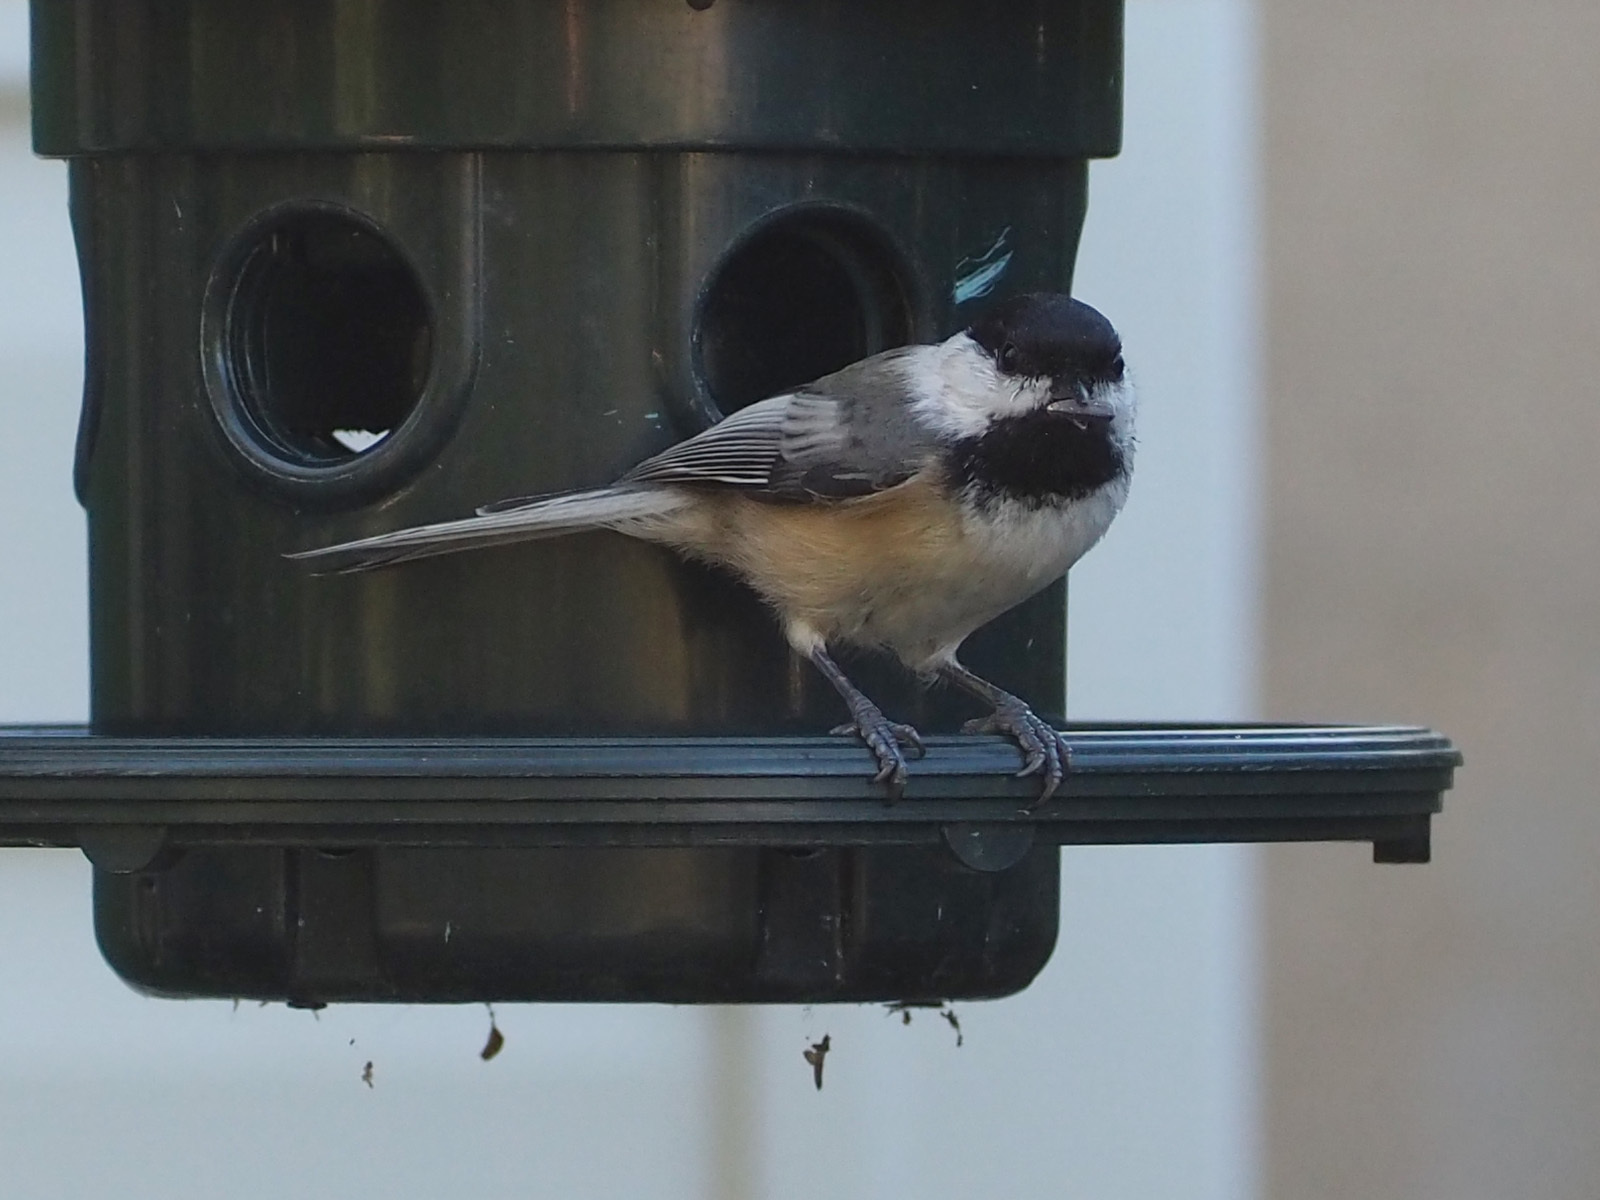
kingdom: Animalia
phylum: Chordata
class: Aves
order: Passeriformes
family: Paridae
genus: Poecile
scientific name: Poecile atricapillus
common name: Black-capped chickadee
